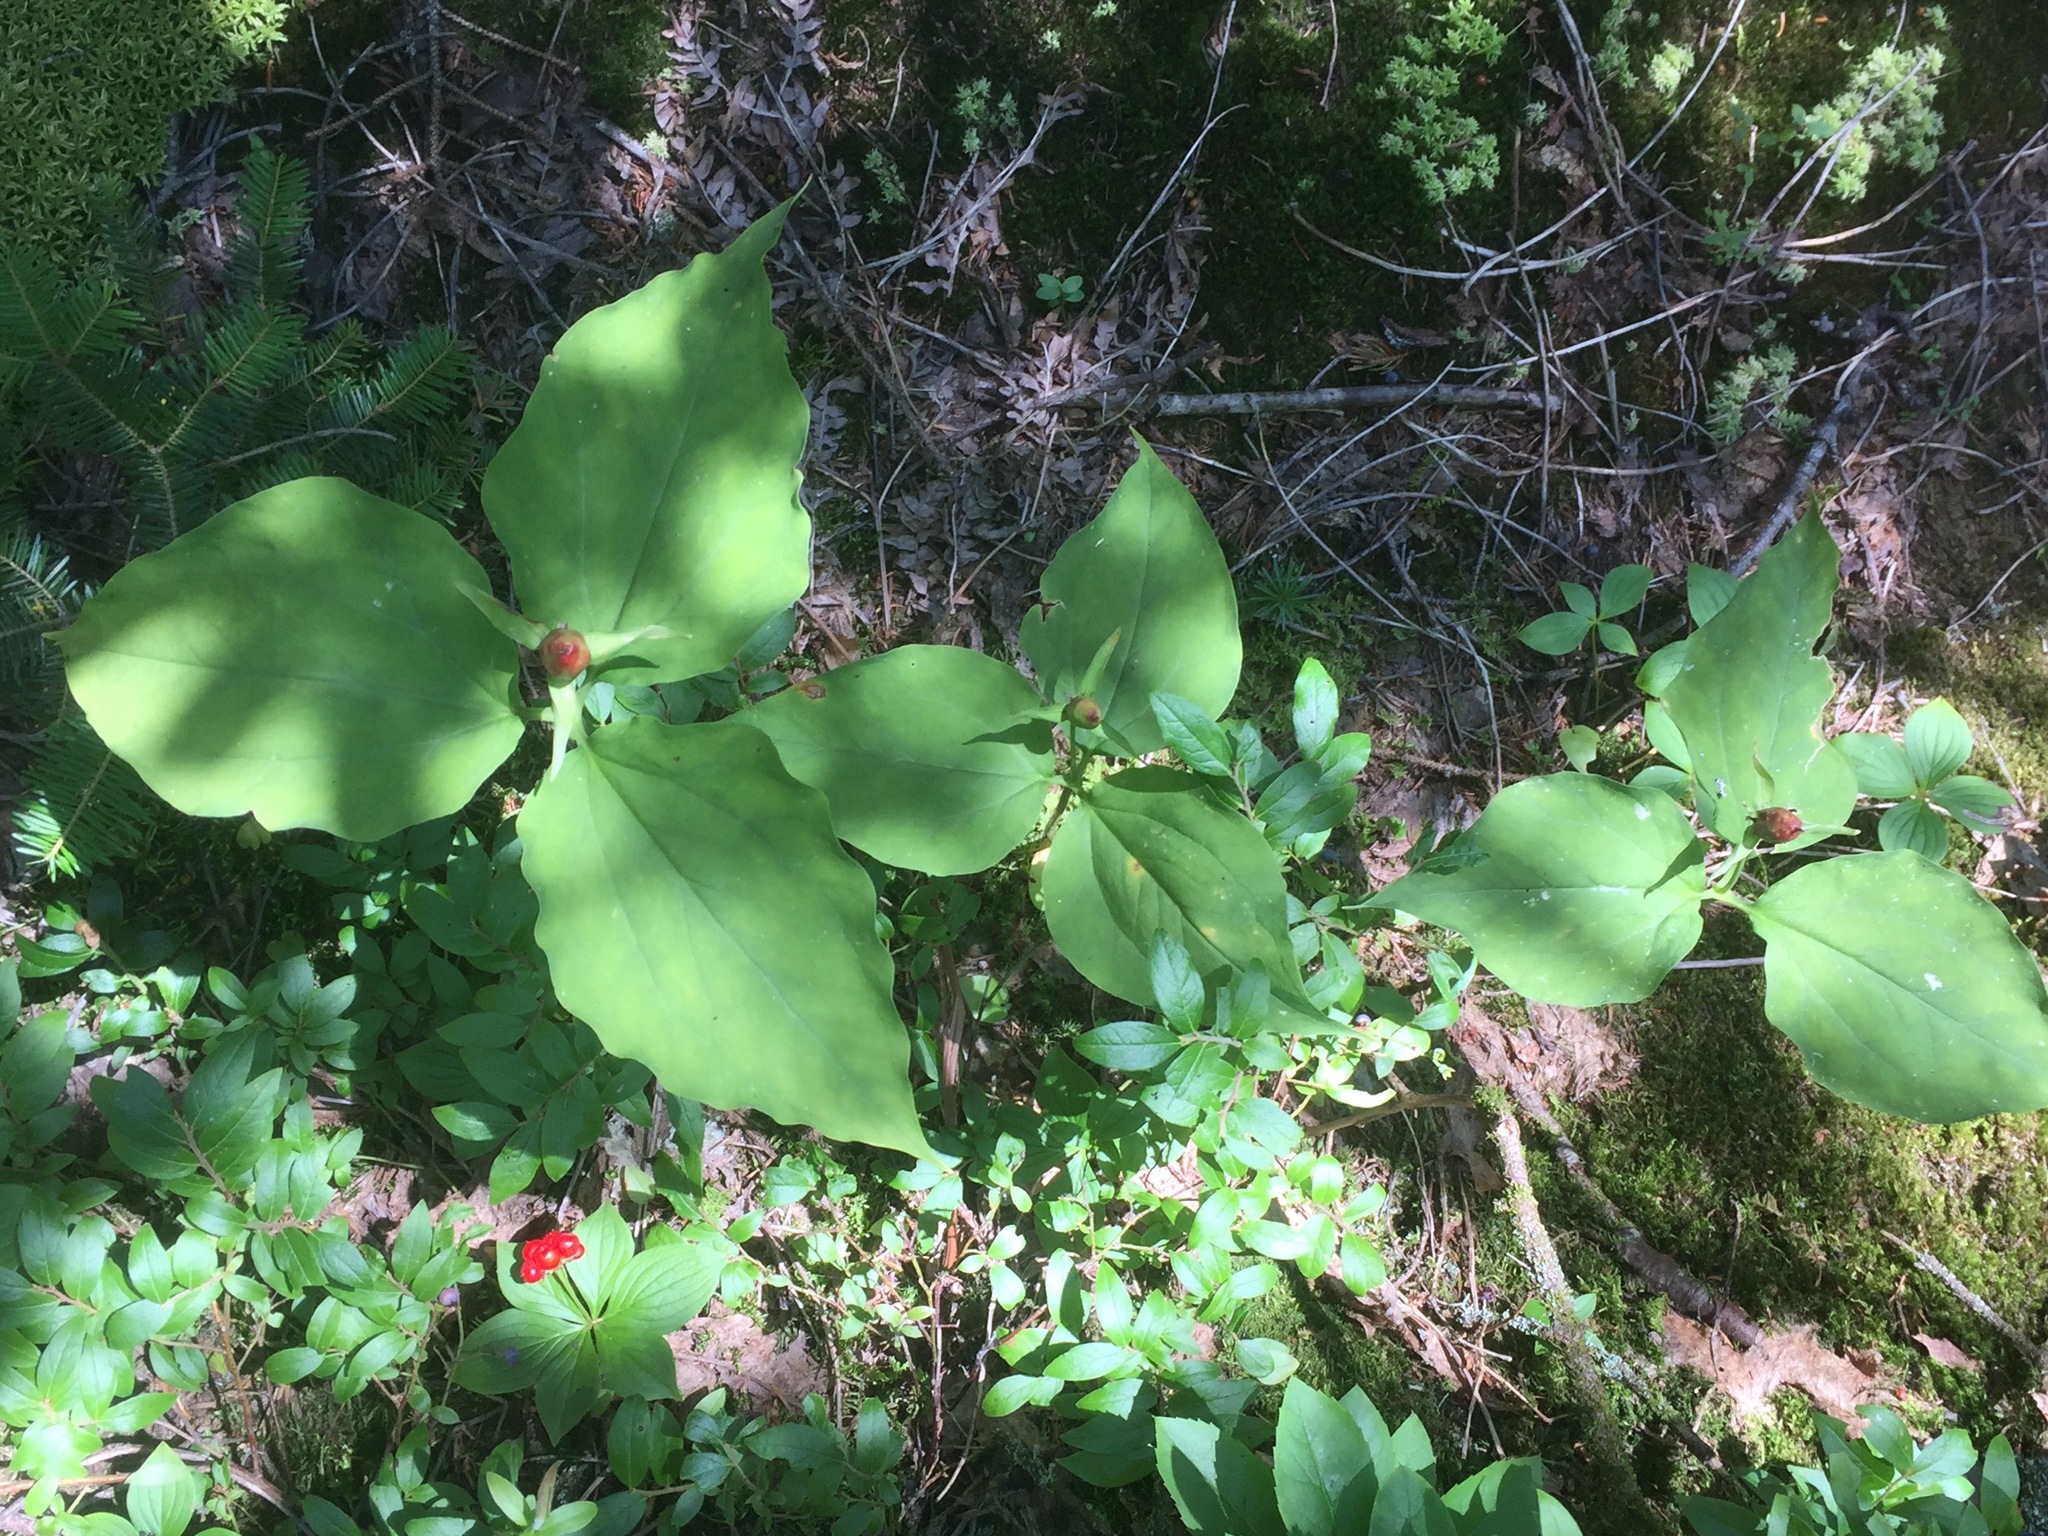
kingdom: Plantae
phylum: Tracheophyta
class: Liliopsida
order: Liliales
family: Melanthiaceae
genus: Trillium
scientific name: Trillium undulatum
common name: Paint trillium
